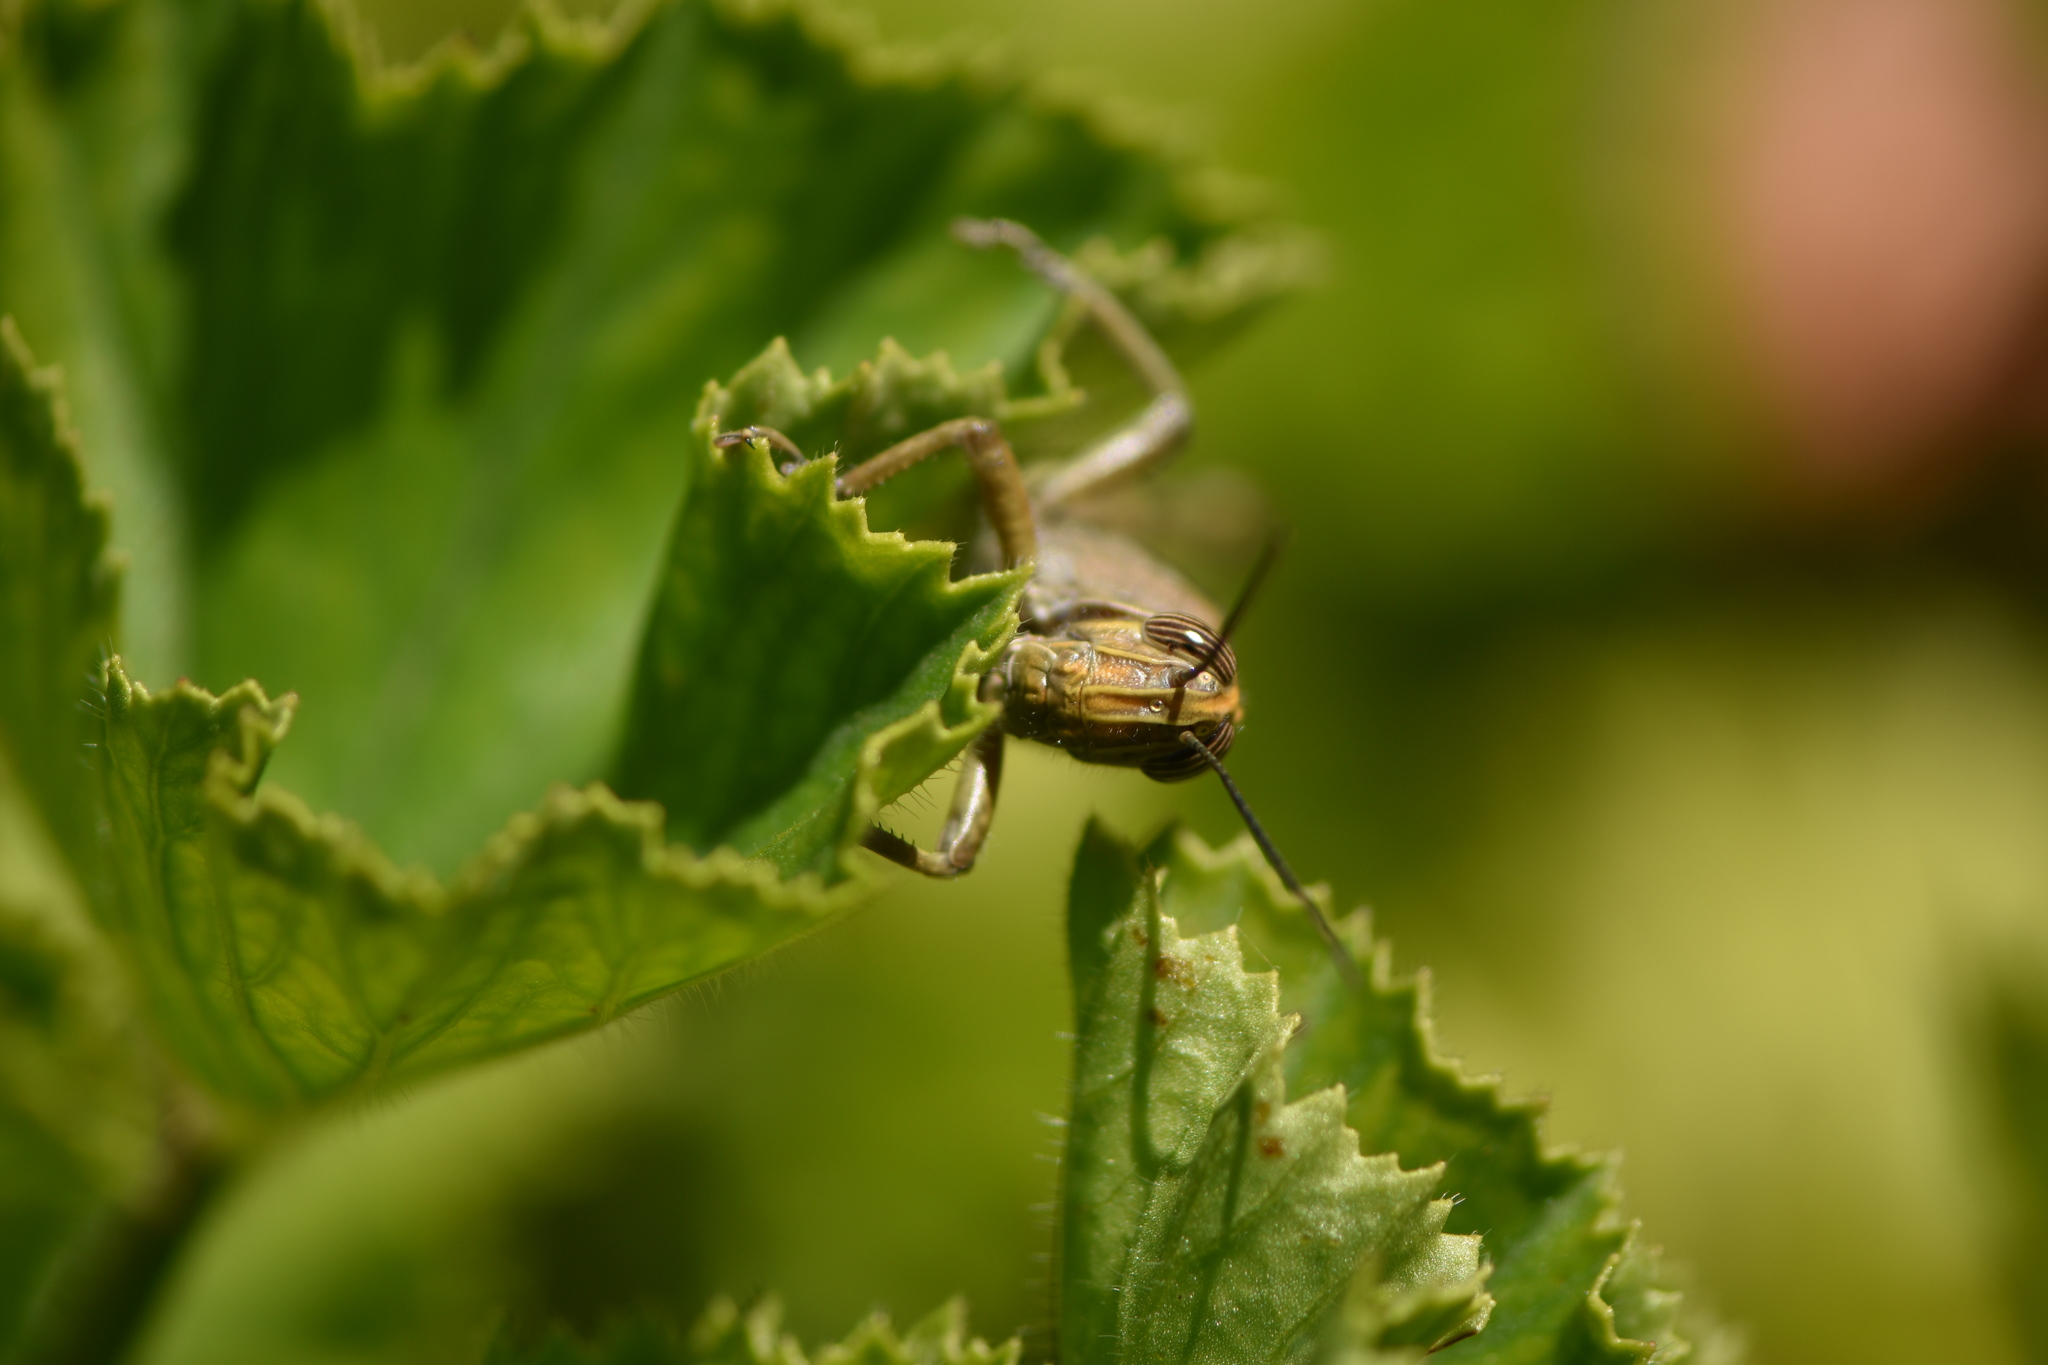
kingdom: Animalia
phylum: Arthropoda
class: Insecta
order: Orthoptera
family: Acrididae
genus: Anacridium
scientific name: Anacridium aegyptium
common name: Egyptian grasshopper
